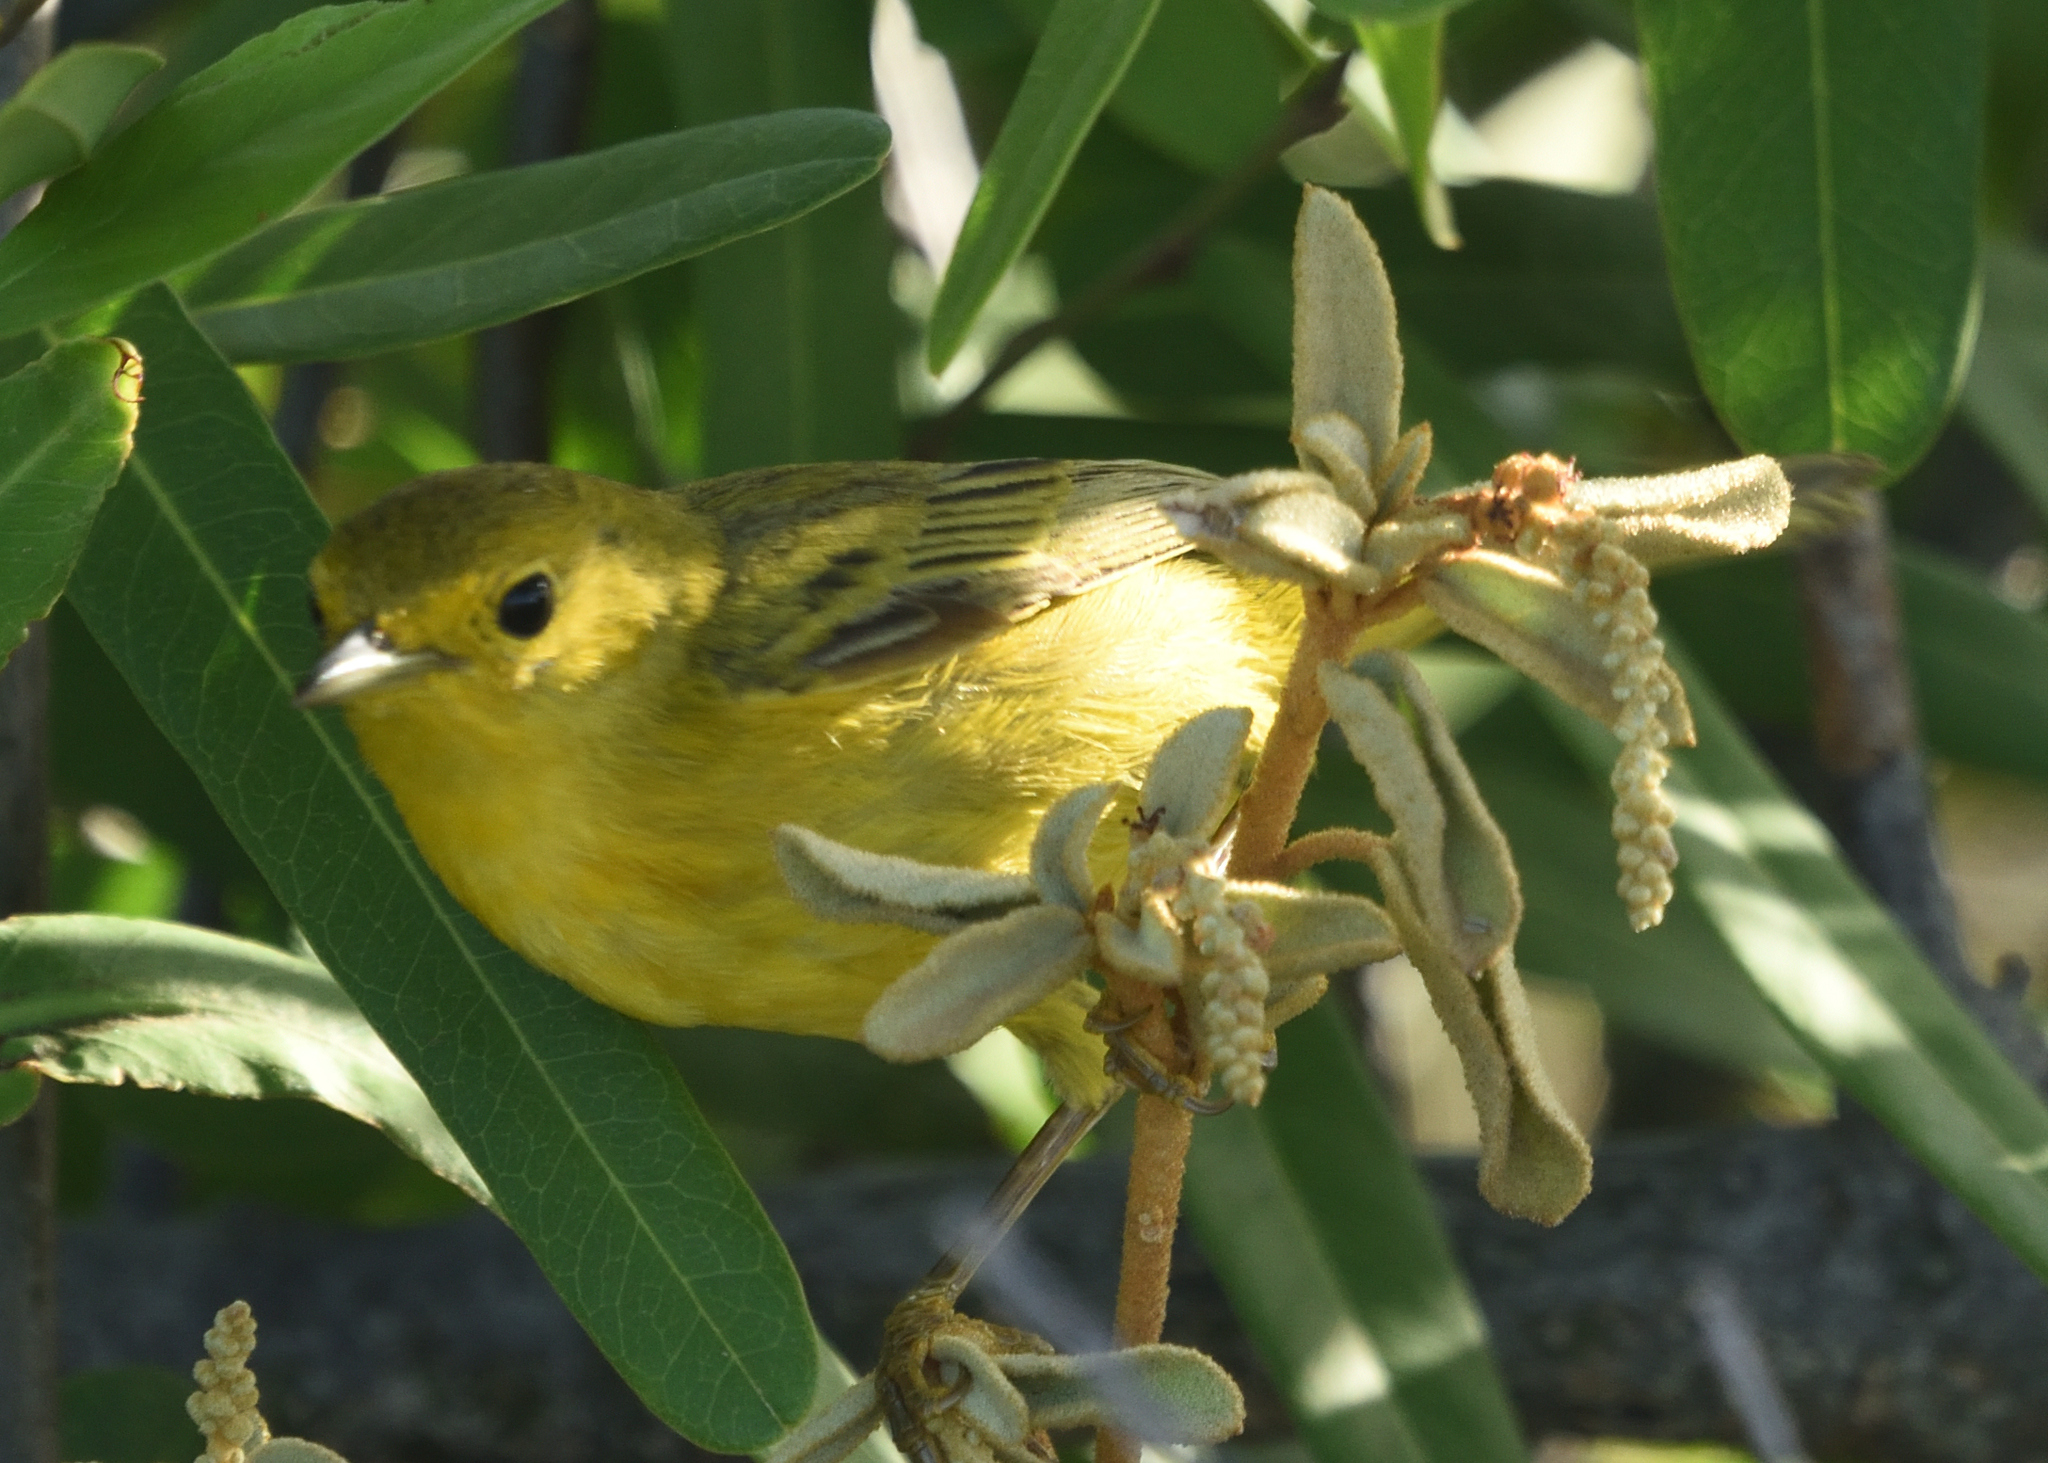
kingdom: Animalia
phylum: Chordata
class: Aves
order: Passeriformes
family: Parulidae
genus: Setophaga
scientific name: Setophaga petechia
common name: Yellow warbler
